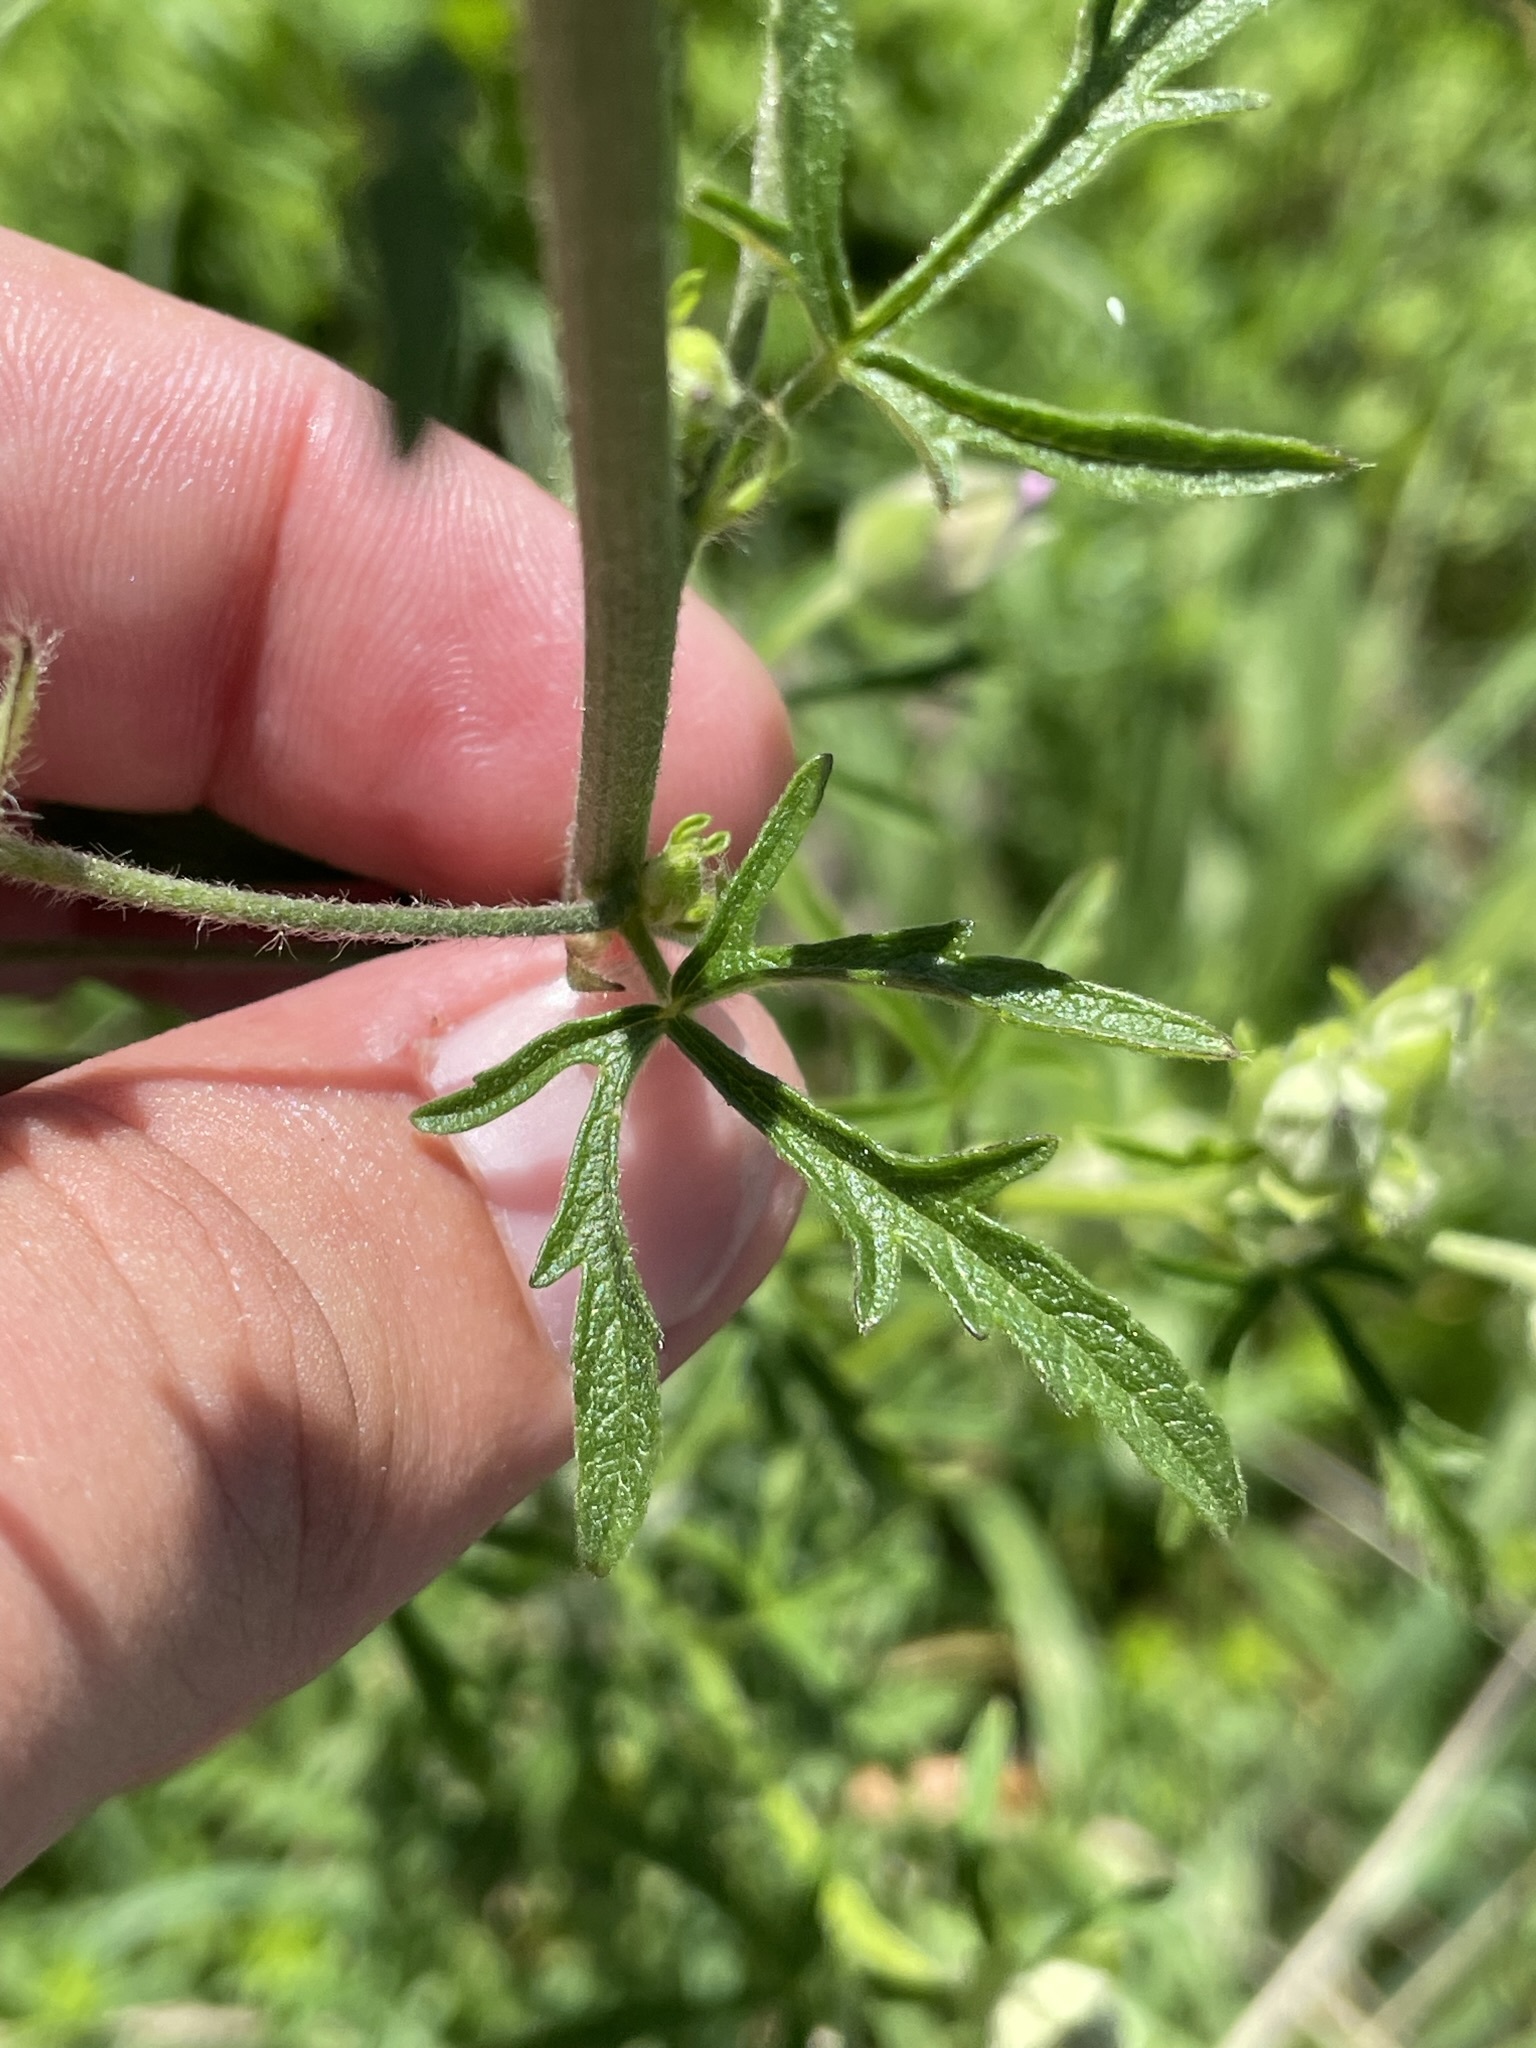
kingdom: Plantae
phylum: Tracheophyta
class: Magnoliopsida
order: Malvales
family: Malvaceae
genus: Malva
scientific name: Malva alcea
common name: Greater musk-mallow
